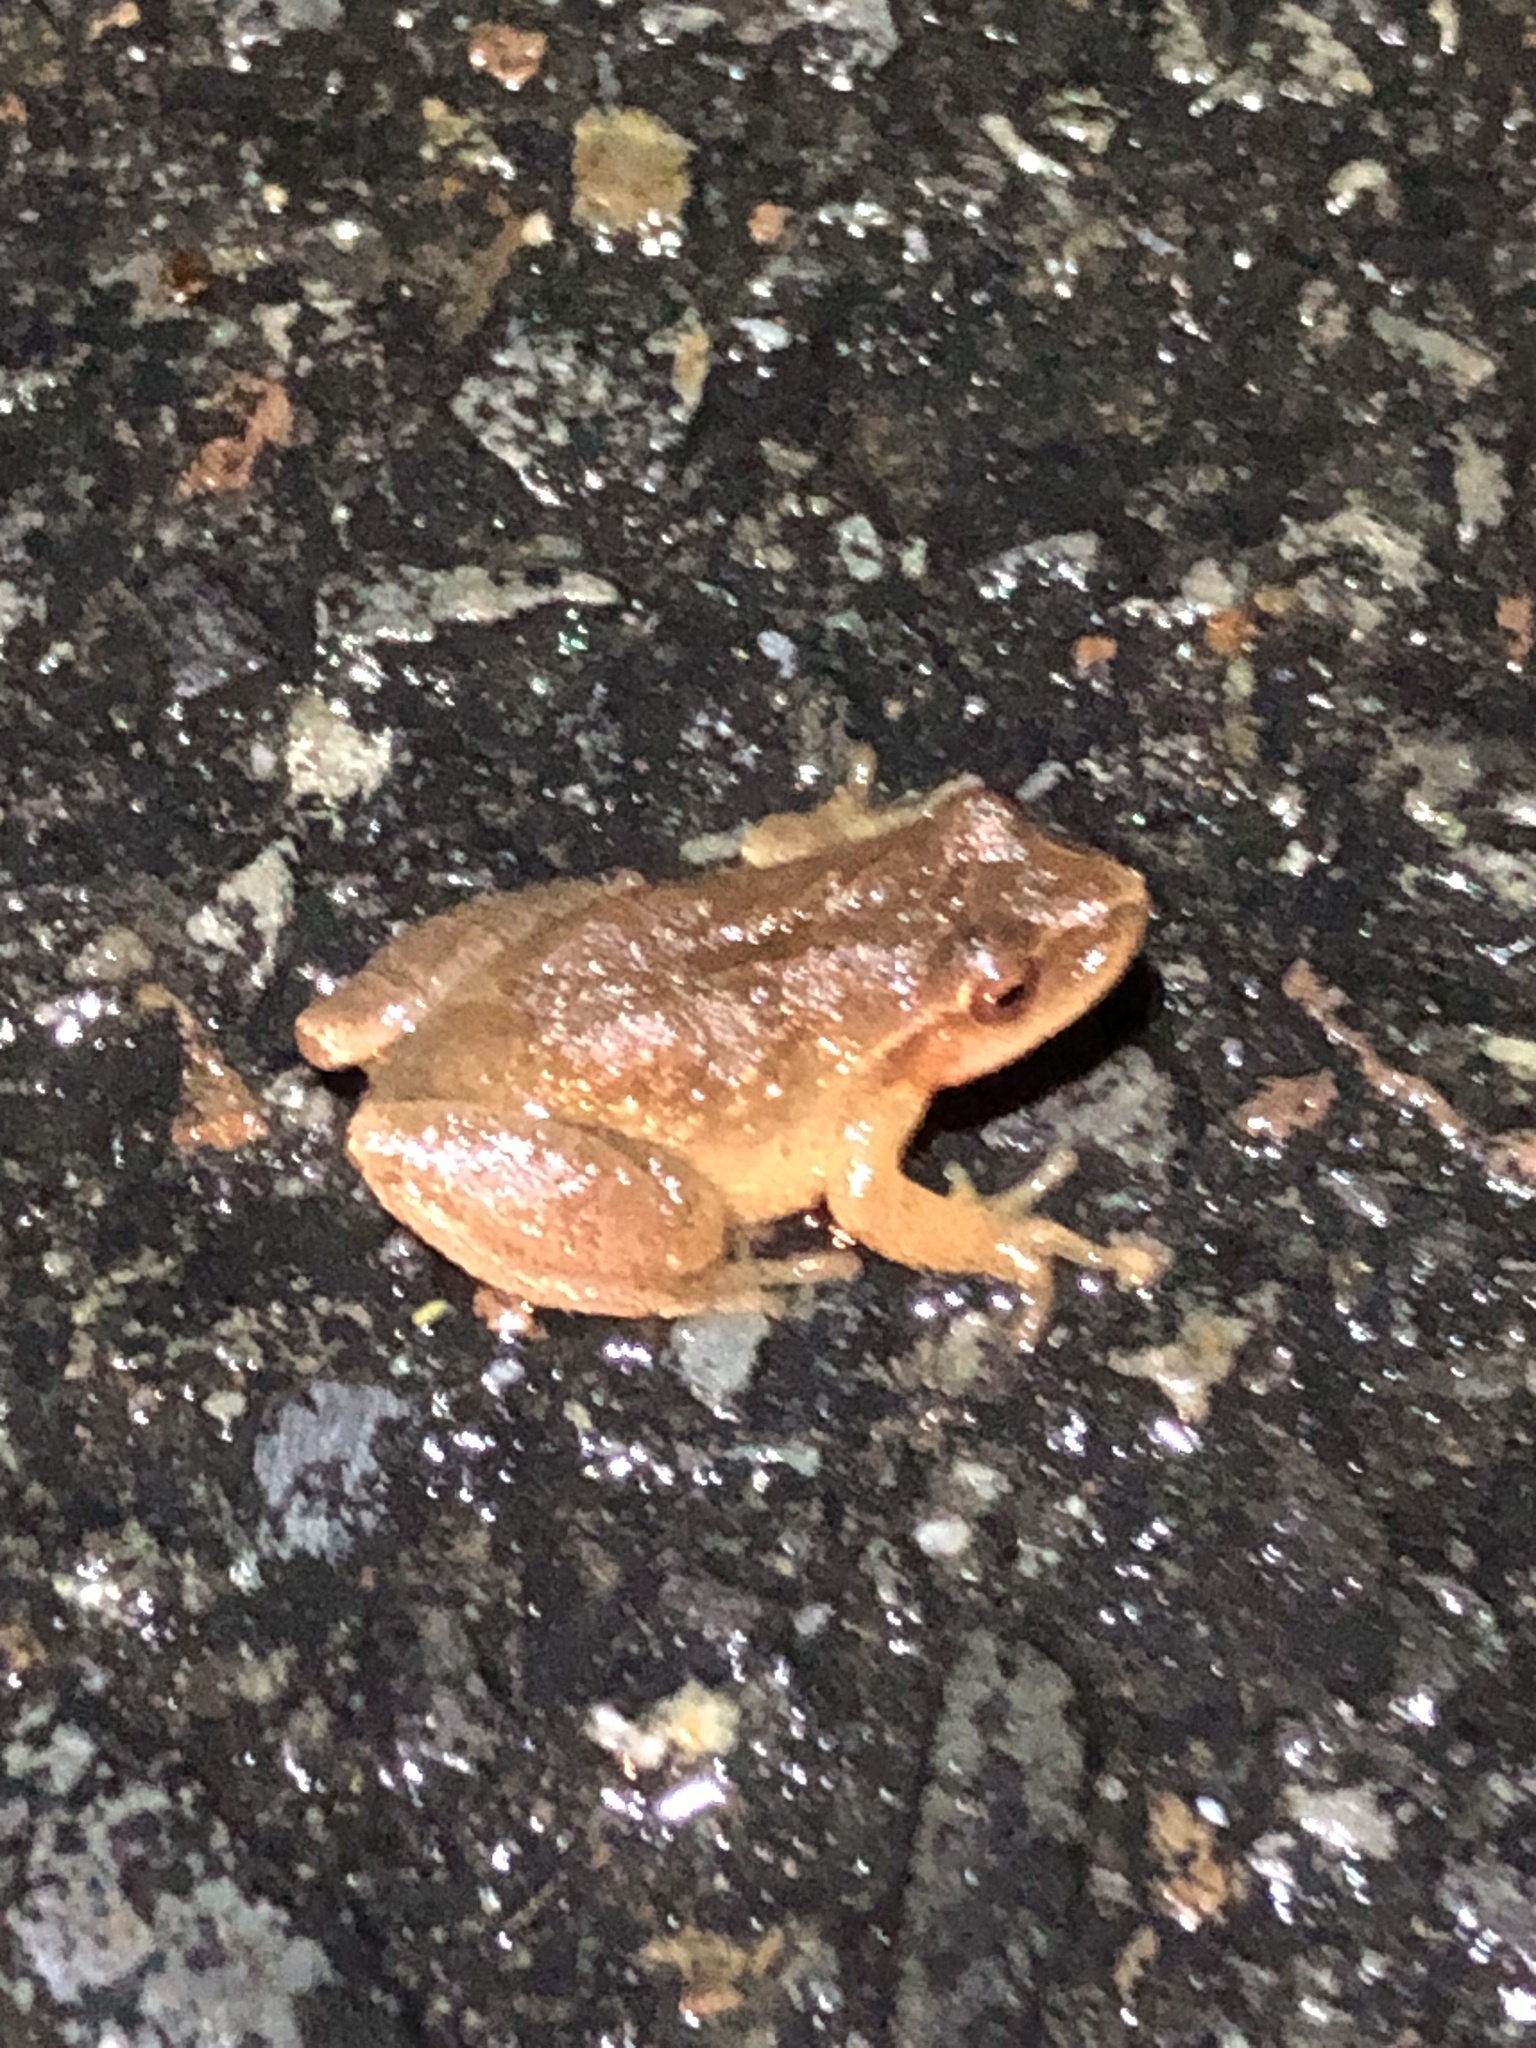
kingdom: Animalia
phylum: Chordata
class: Amphibia
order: Anura
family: Hylidae
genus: Pseudacris
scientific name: Pseudacris crucifer
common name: Spring peeper
